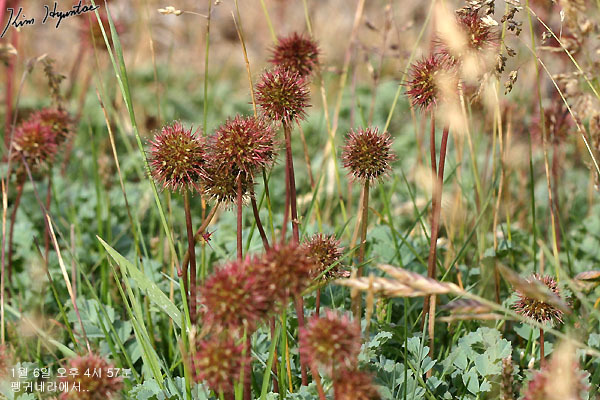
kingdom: Plantae
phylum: Tracheophyta
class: Magnoliopsida
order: Rosales
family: Rosaceae
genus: Acaena
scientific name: Acaena magellanica
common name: New zealand burr
